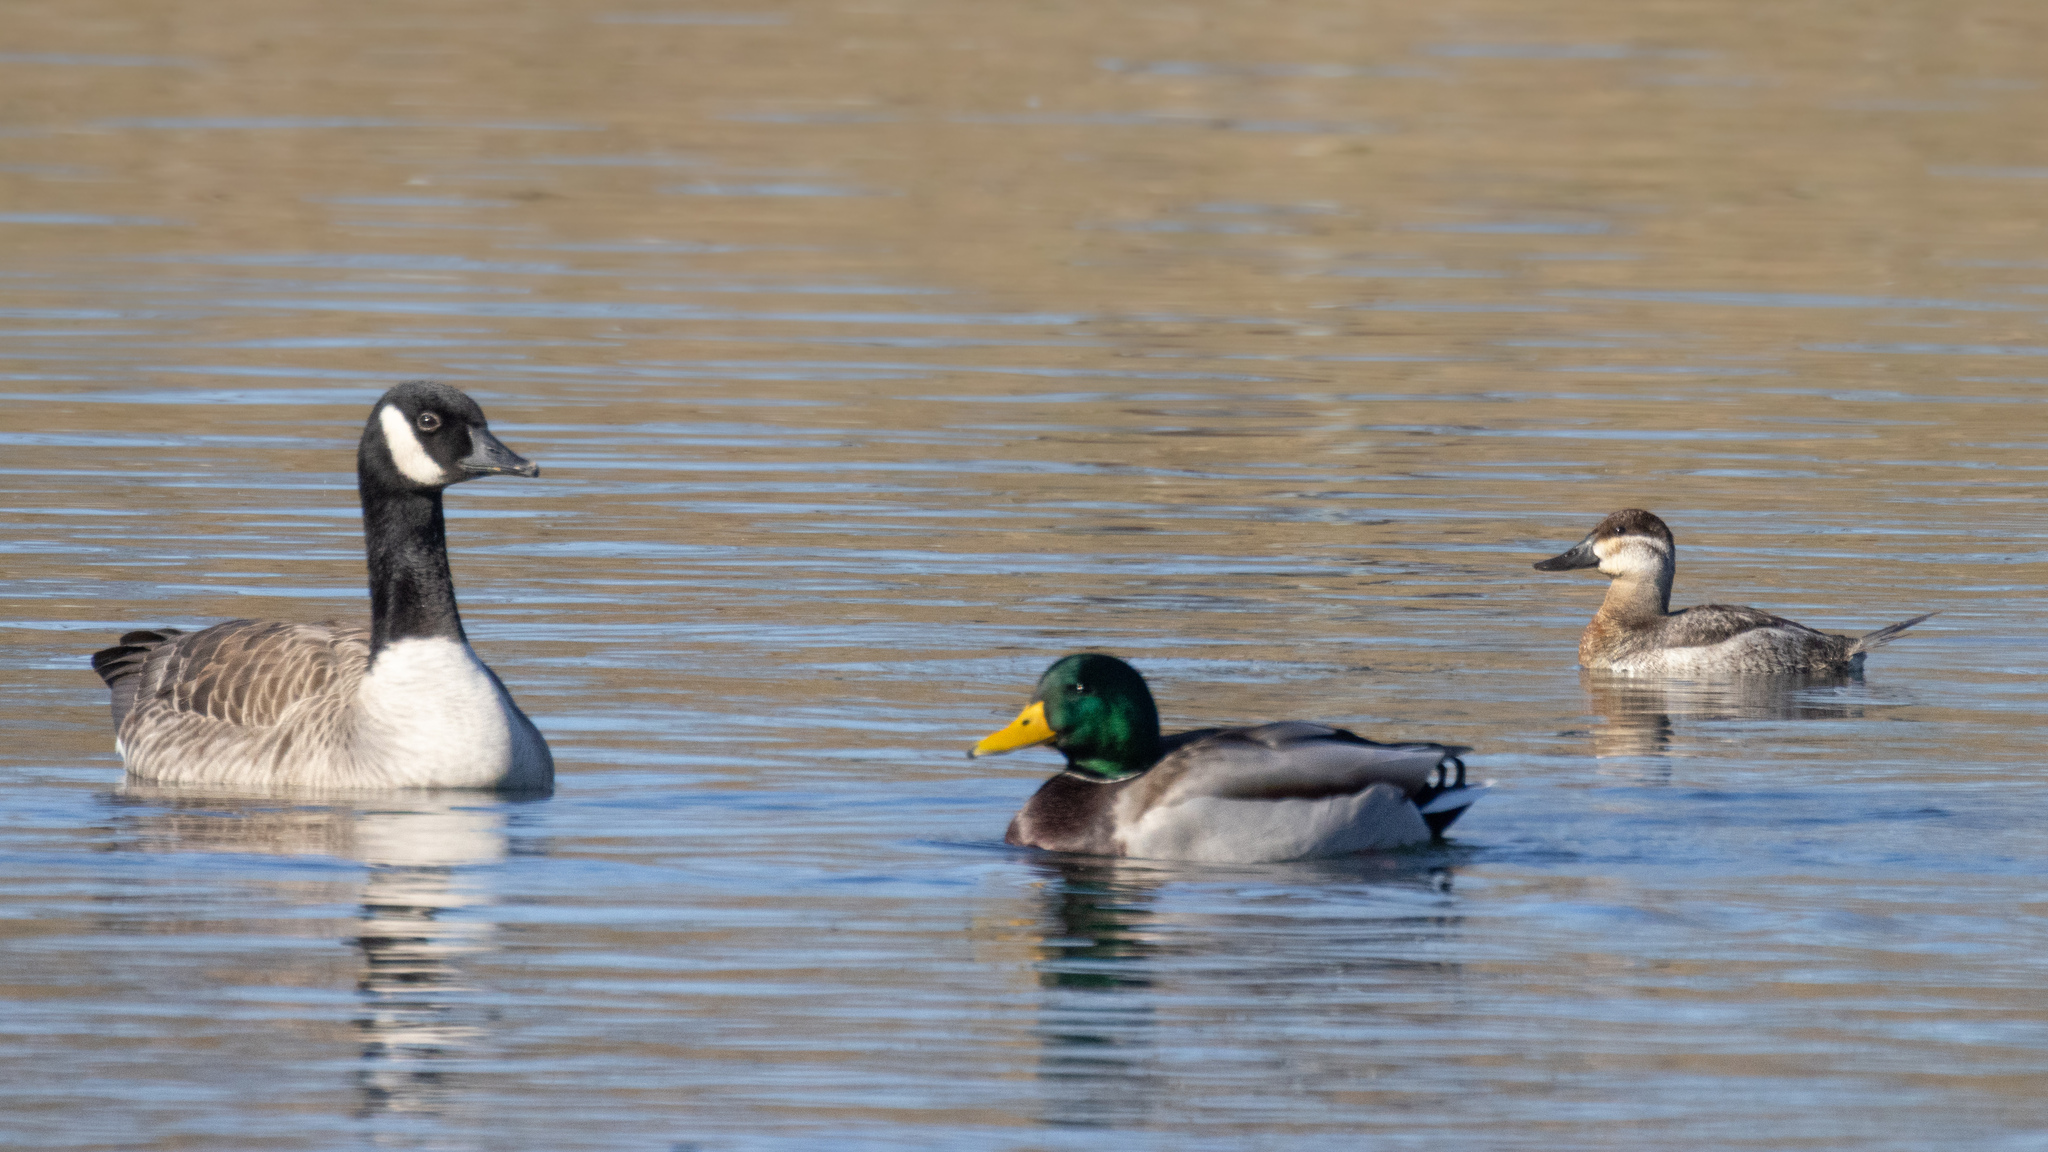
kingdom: Animalia
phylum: Chordata
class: Aves
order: Anseriformes
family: Anatidae
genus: Oxyura
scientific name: Oxyura jamaicensis
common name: Ruddy duck
